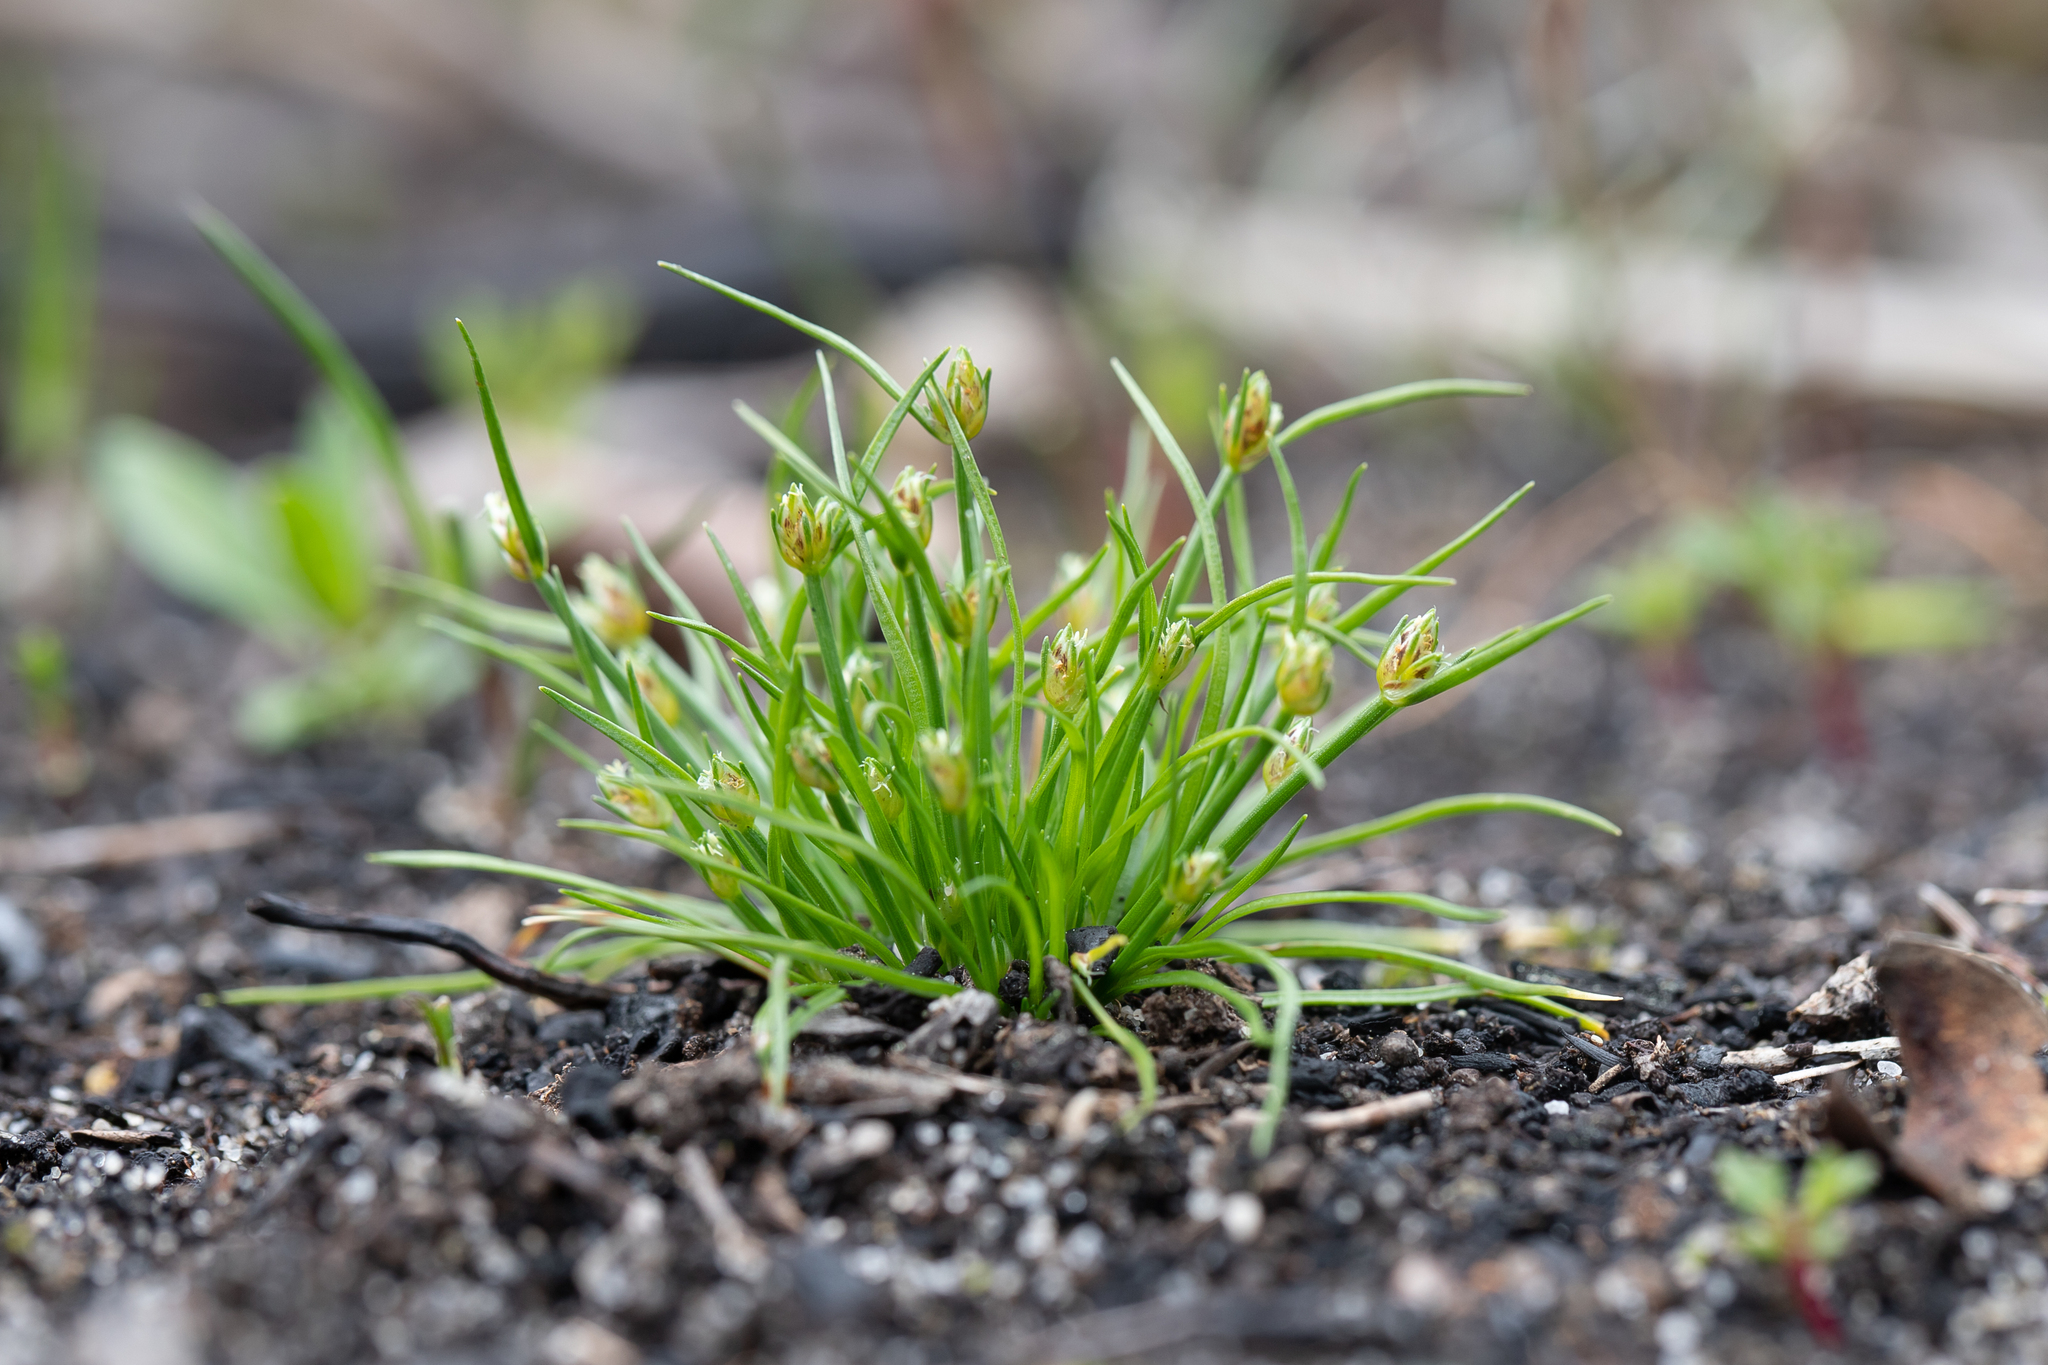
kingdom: Plantae
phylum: Tracheophyta
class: Liliopsida
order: Poales
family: Cyperaceae
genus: Isolepis
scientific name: Isolepis marginata
